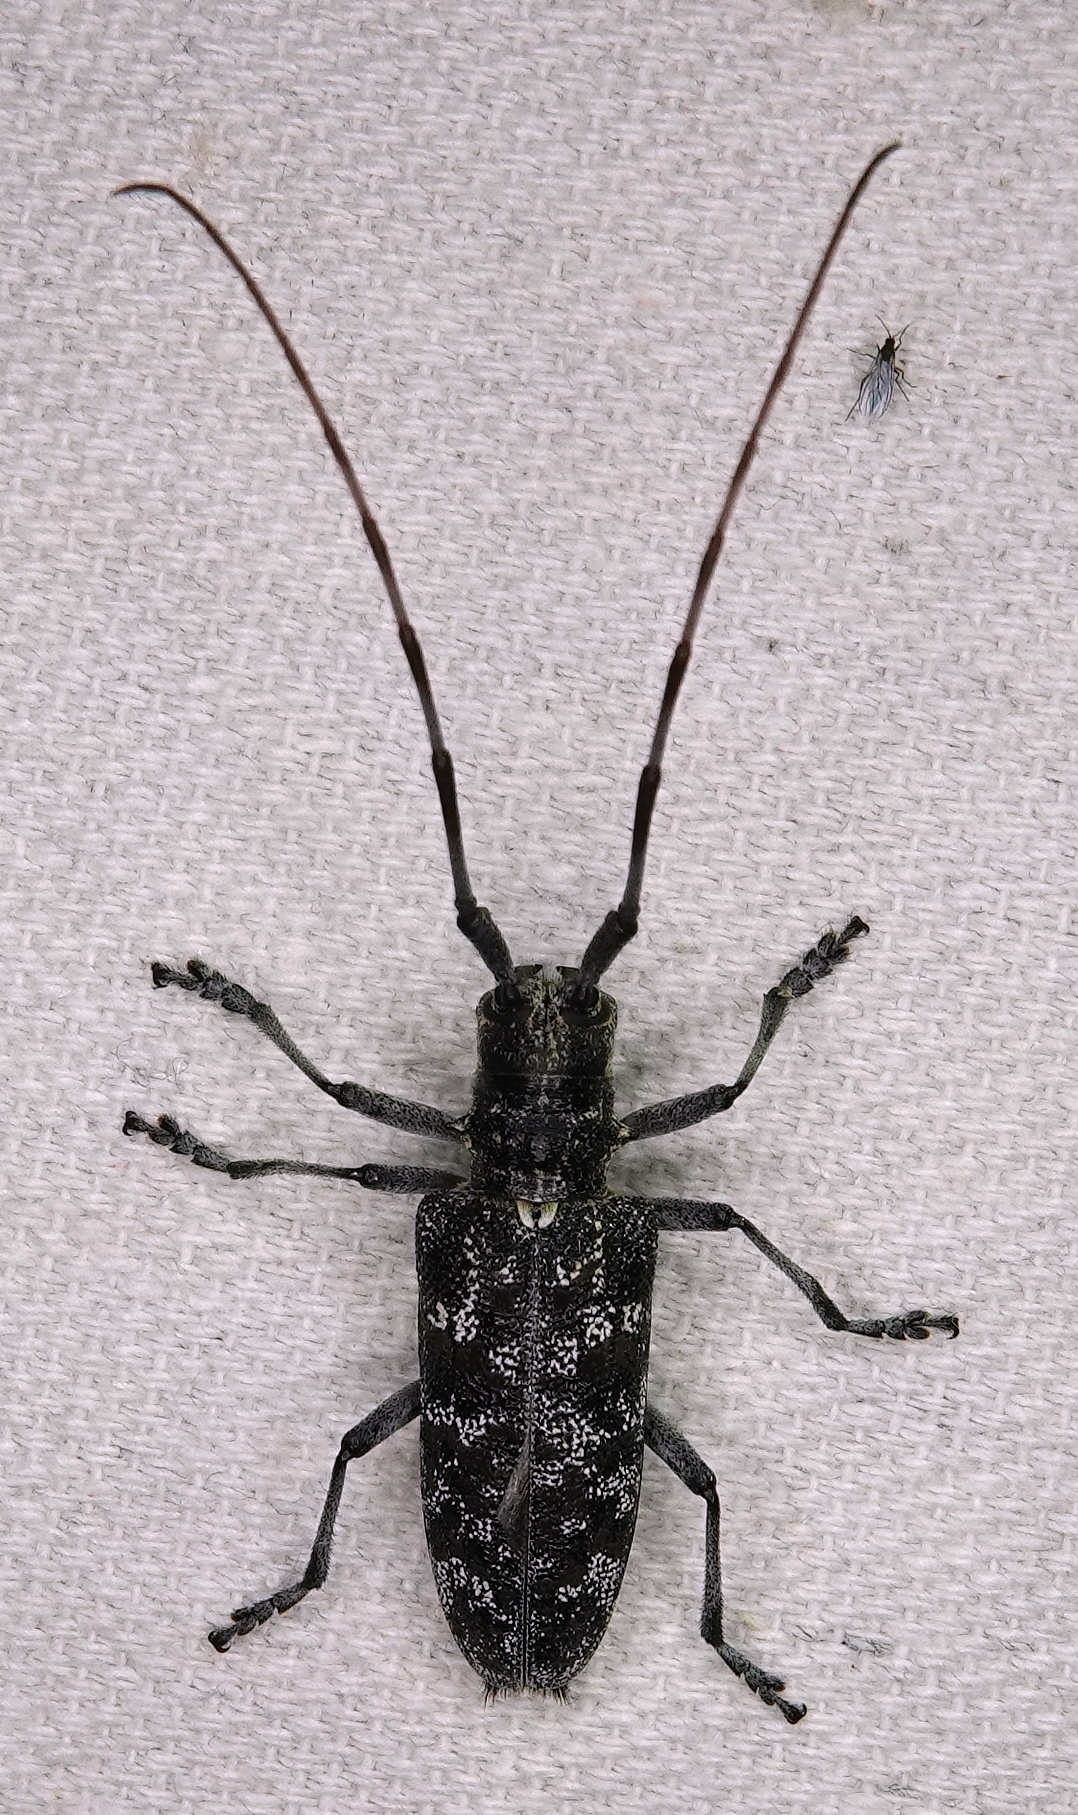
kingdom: Animalia
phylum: Arthropoda
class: Insecta
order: Coleoptera
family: Cerambycidae
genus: Monochamus
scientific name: Monochamus clamator
